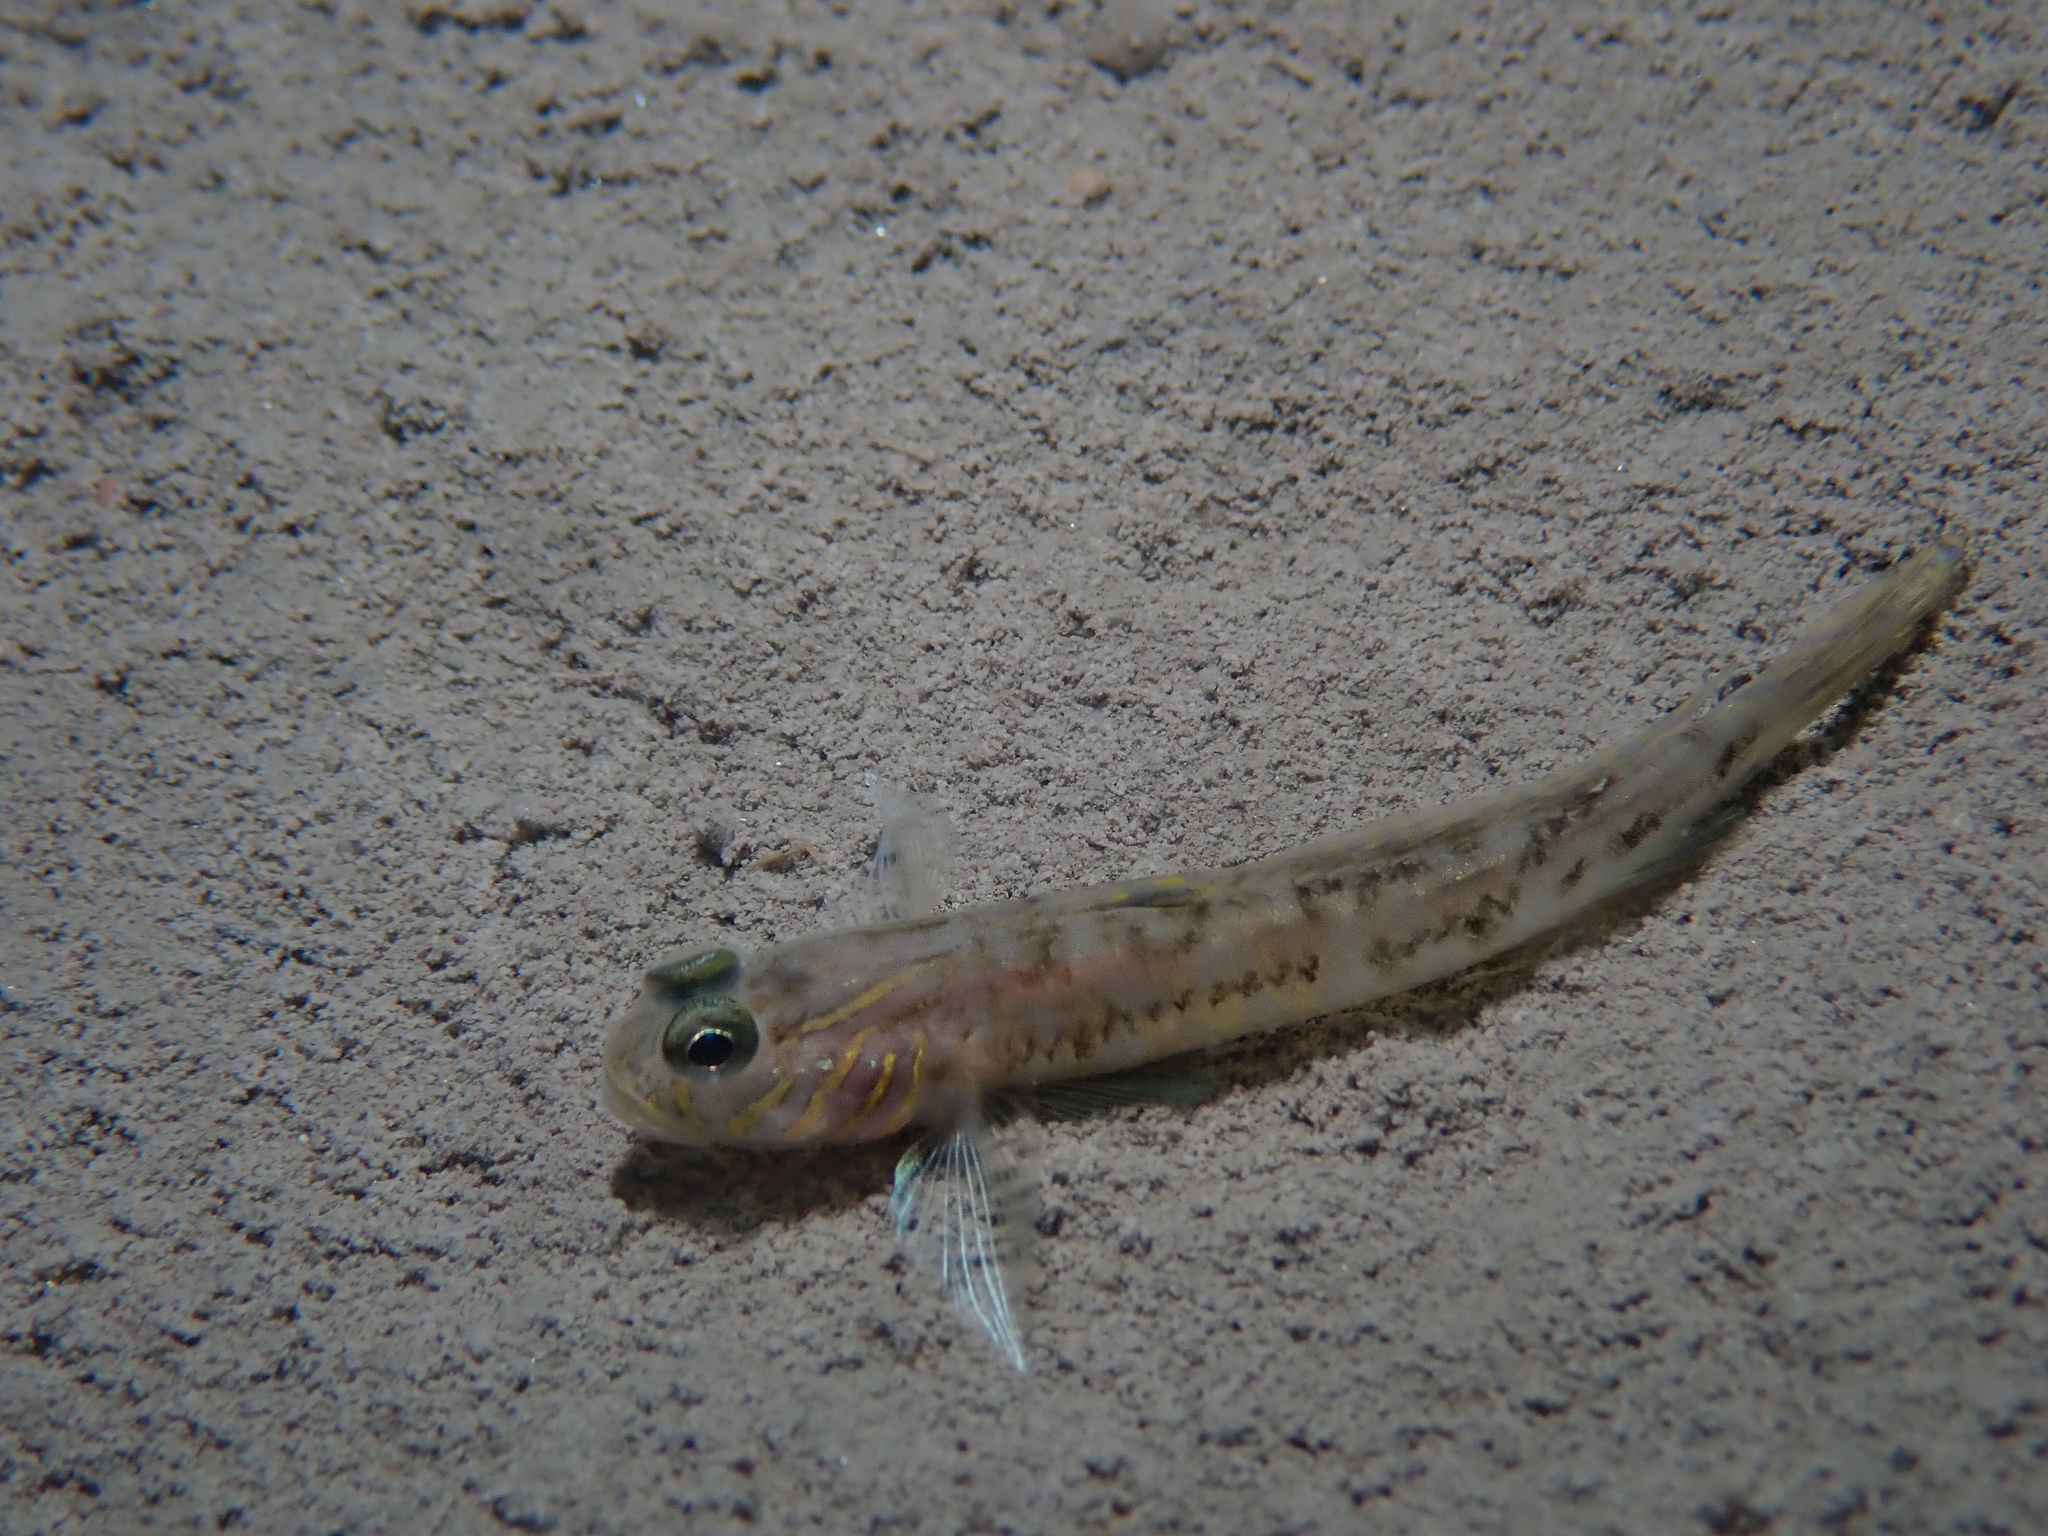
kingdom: Animalia
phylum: Chordata
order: Perciformes
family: Gobiidae
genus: Lesueurigobius
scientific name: Lesueurigobius suerii
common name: Lesueur's goby
